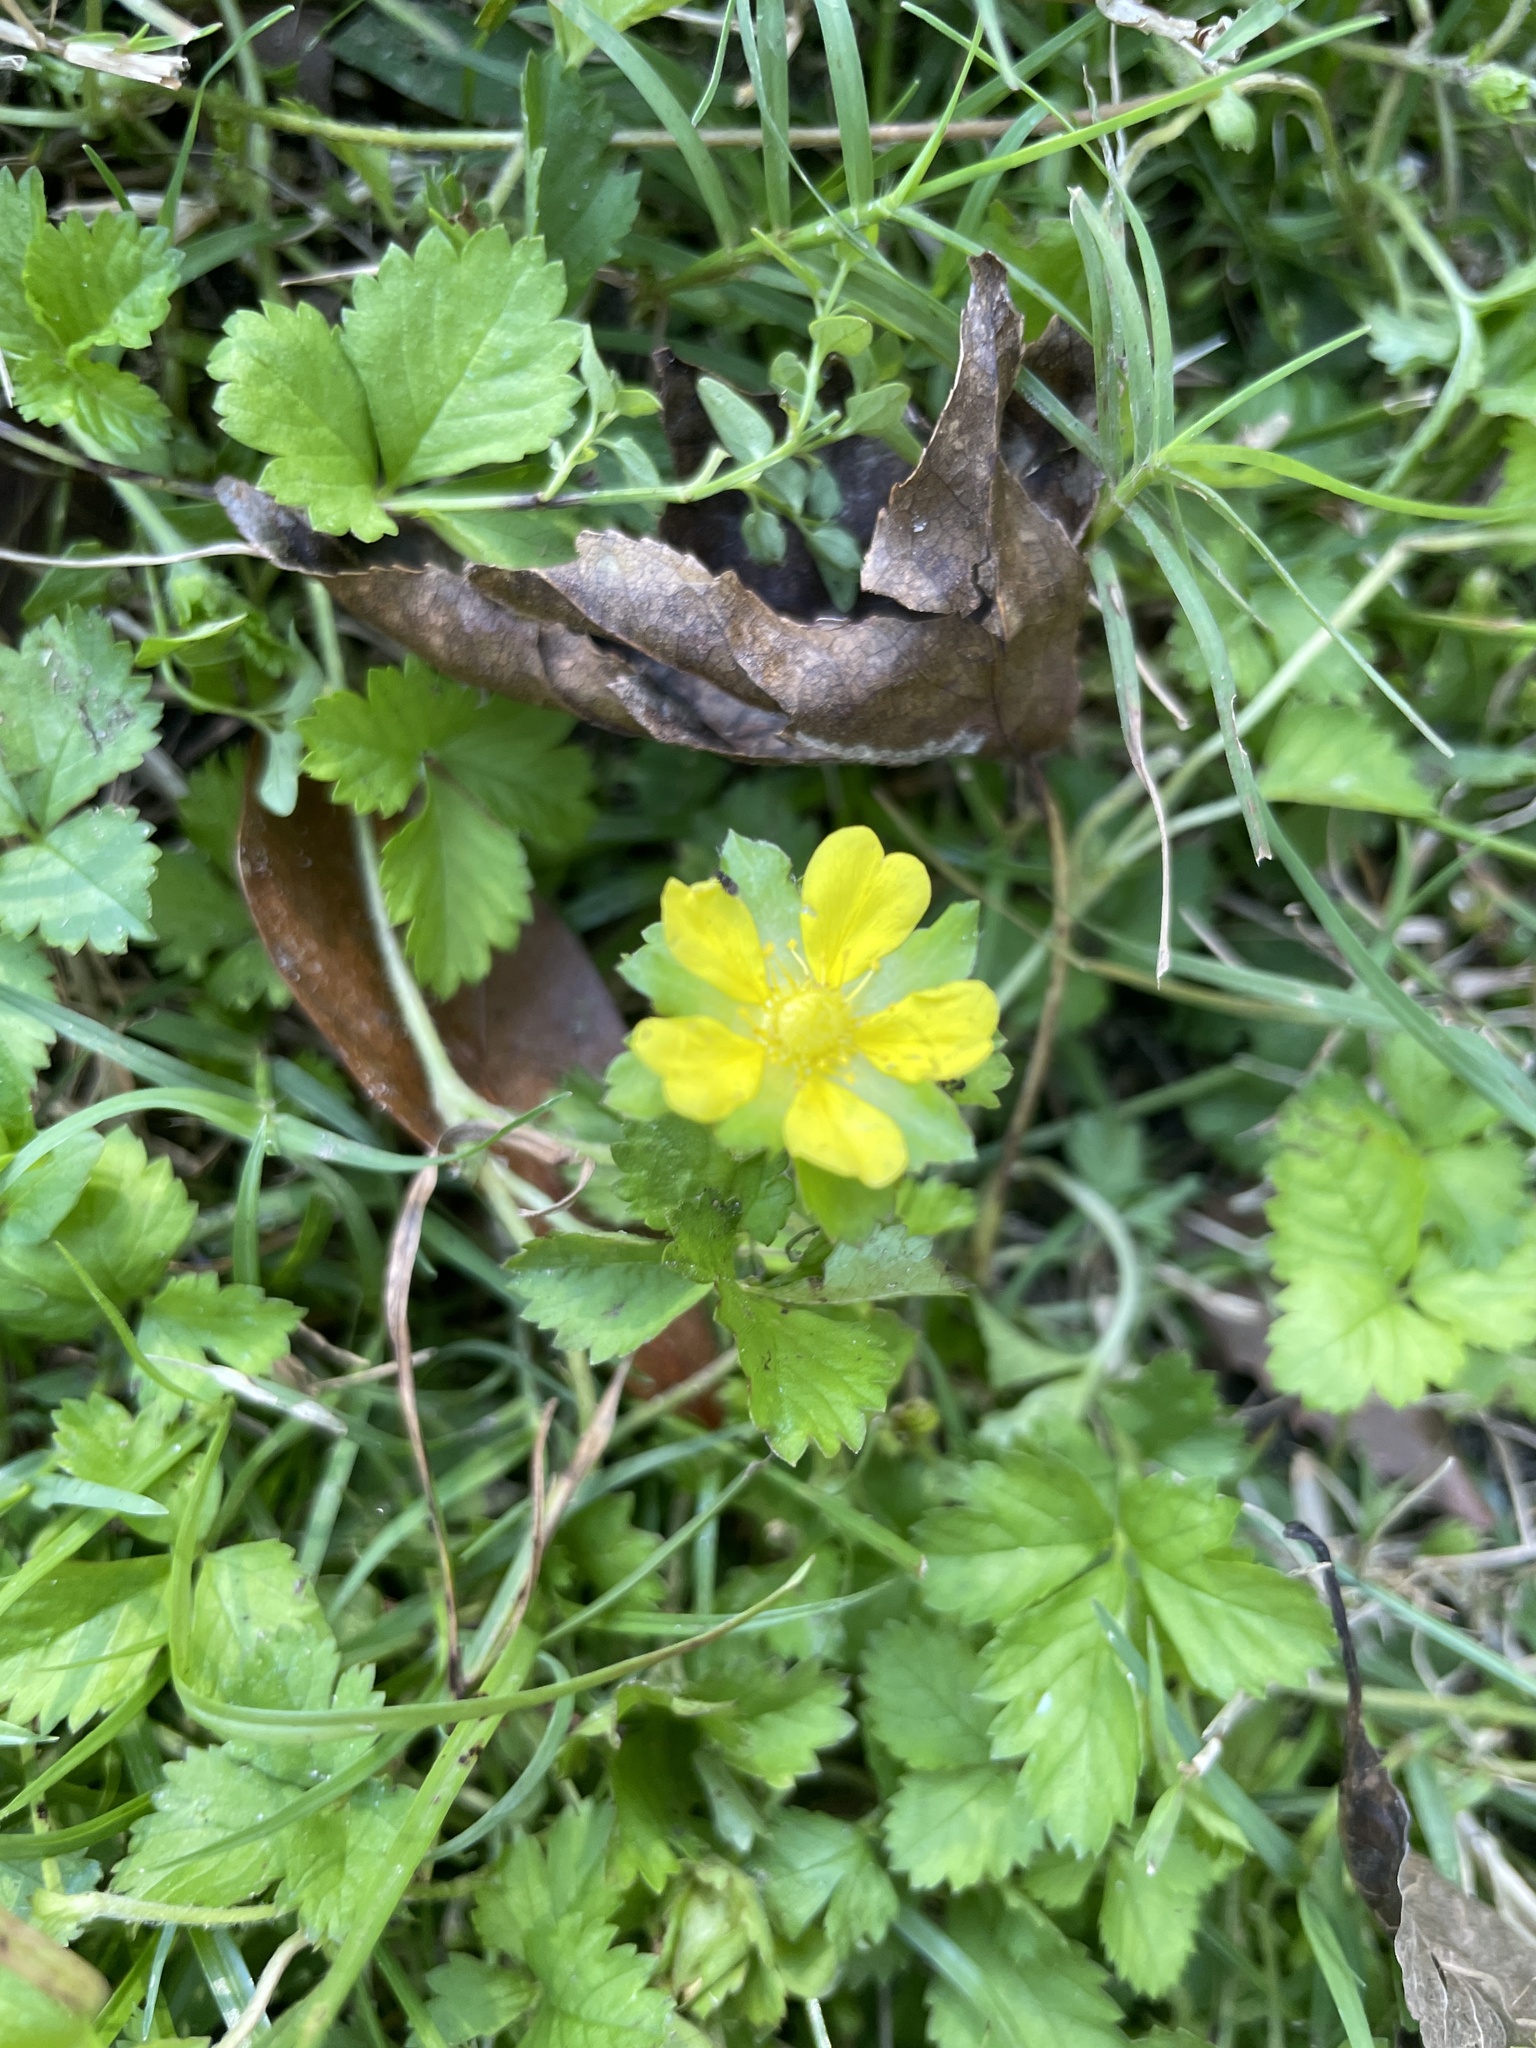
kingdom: Plantae
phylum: Tracheophyta
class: Magnoliopsida
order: Rosales
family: Rosaceae
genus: Potentilla
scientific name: Potentilla indica
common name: Yellow-flowered strawberry
